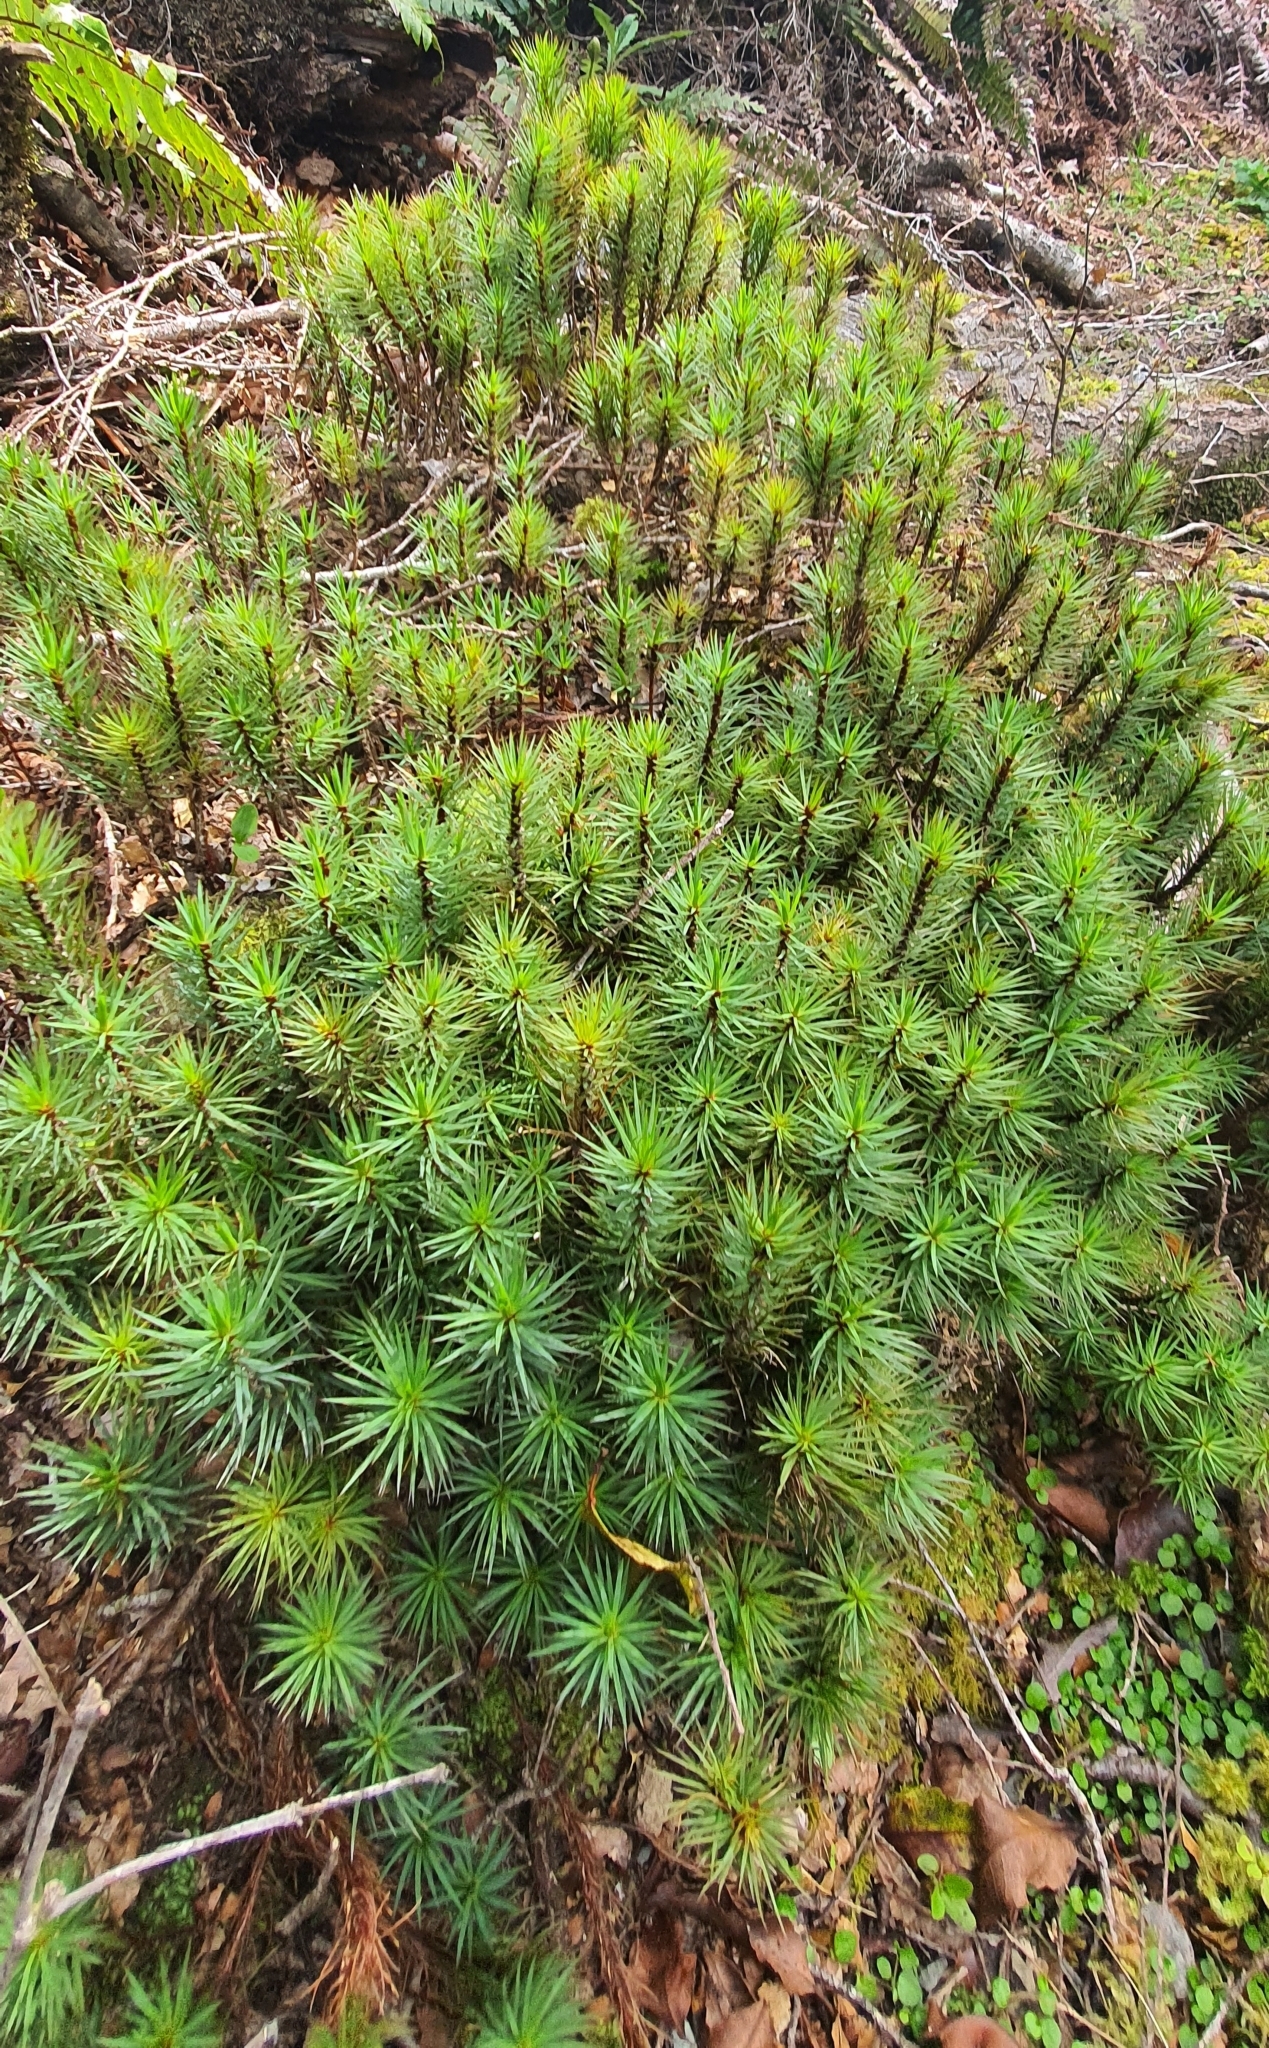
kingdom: Plantae
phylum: Bryophyta
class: Polytrichopsida
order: Polytrichales
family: Polytrichaceae
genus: Dawsonia
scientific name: Dawsonia superba
